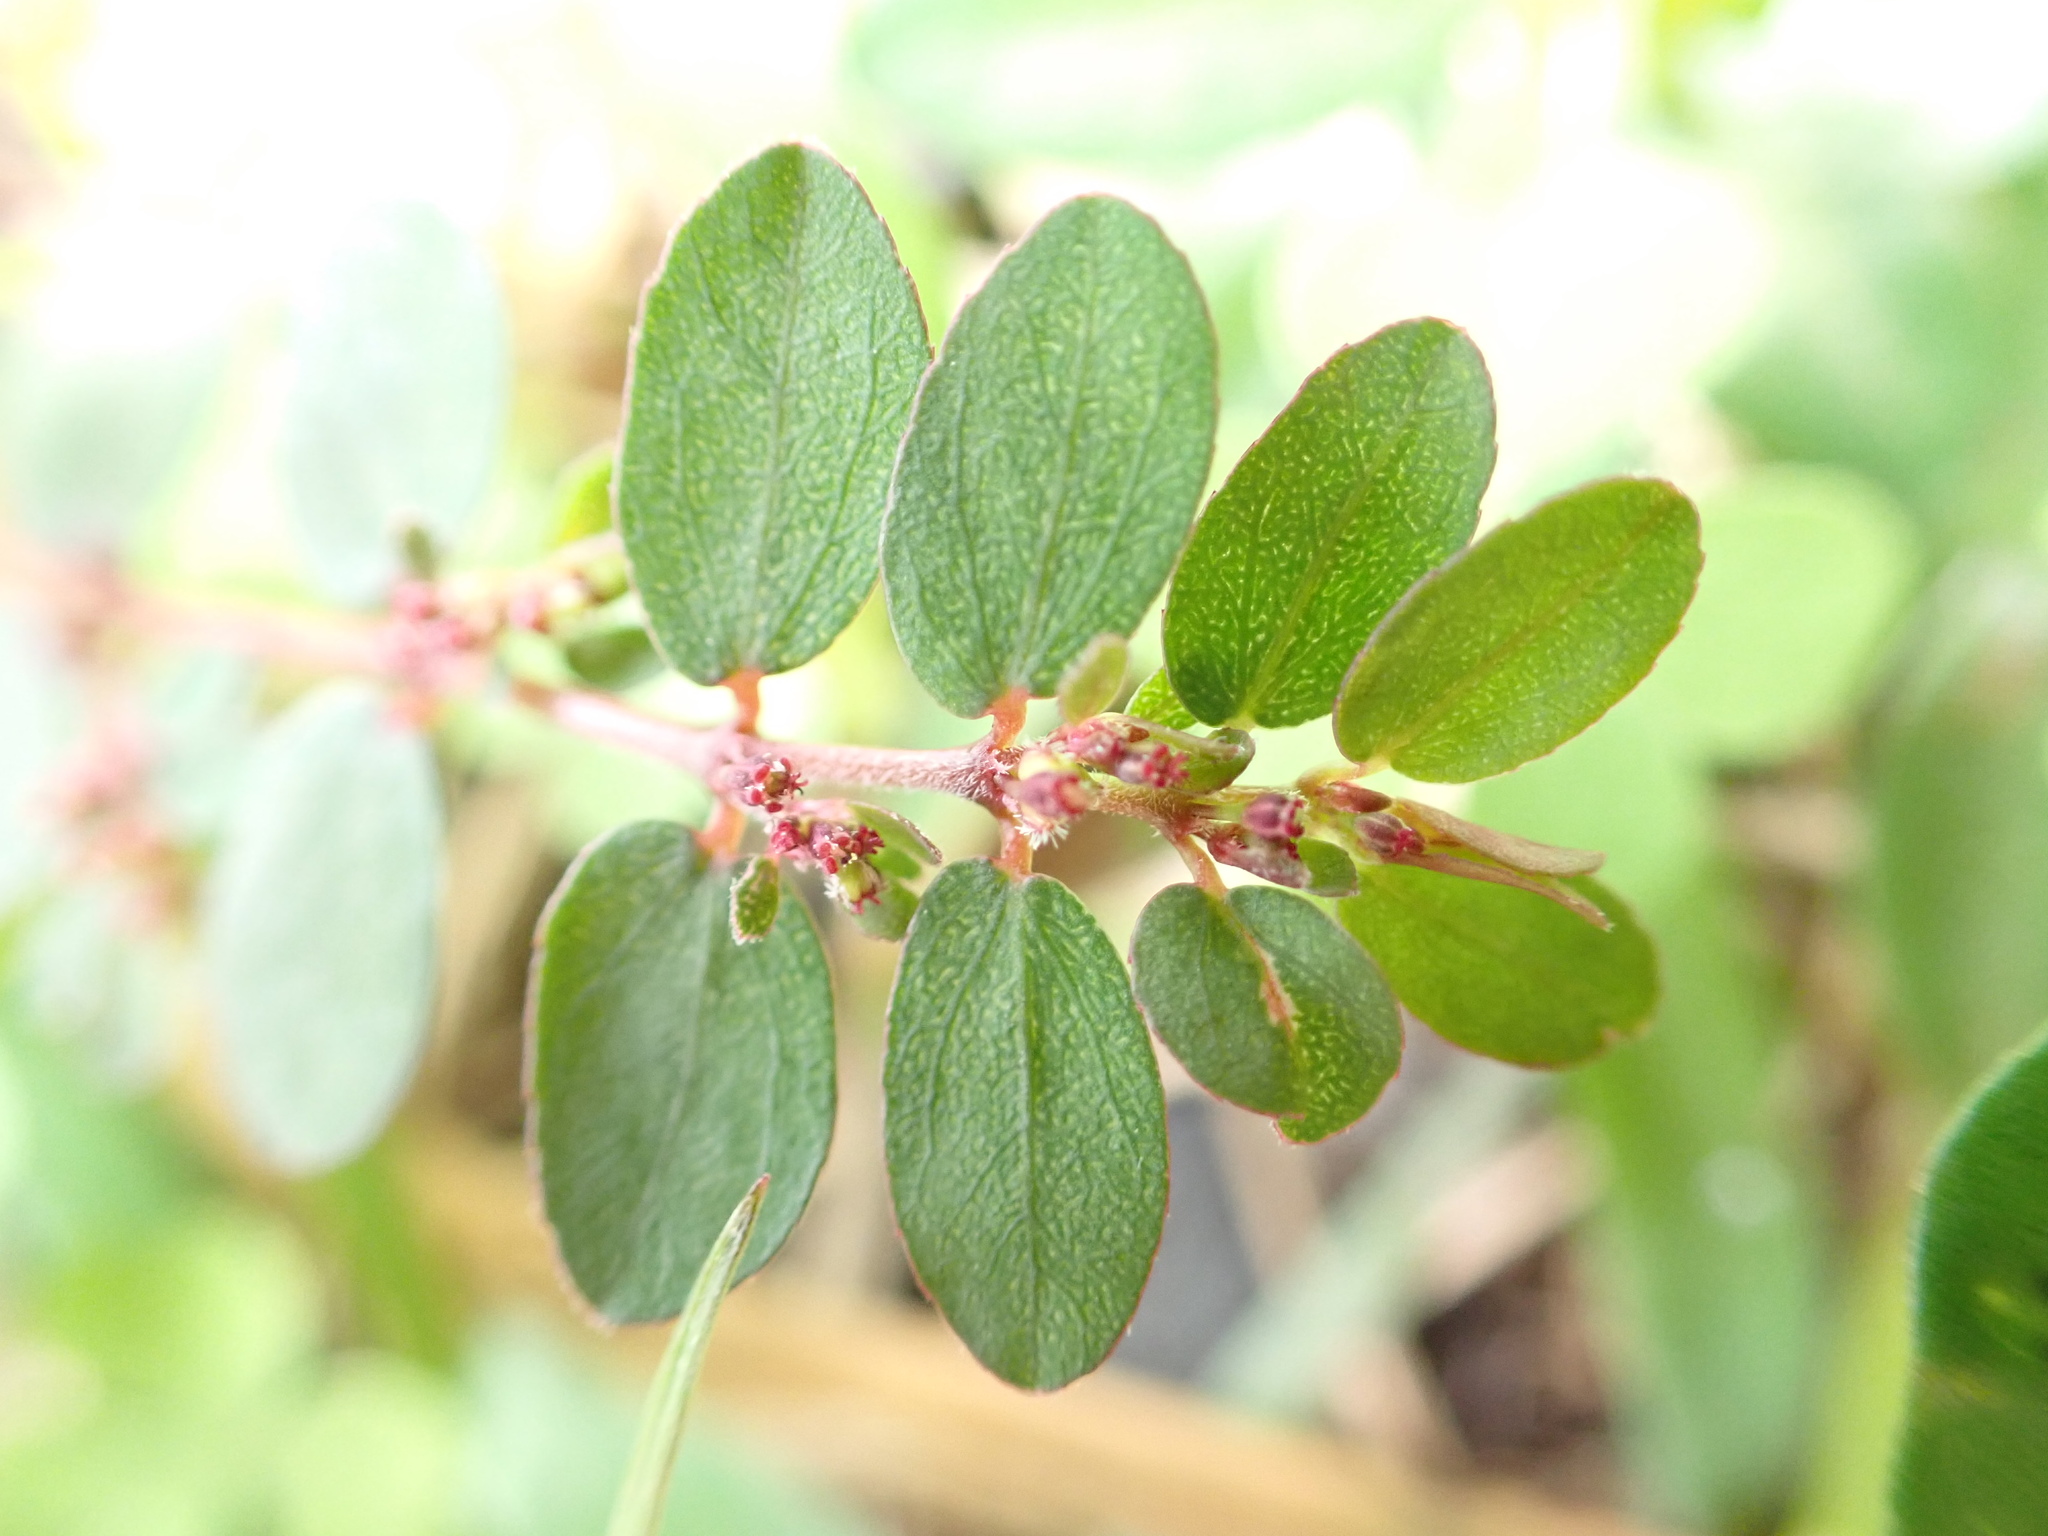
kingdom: Plantae
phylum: Tracheophyta
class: Magnoliopsida
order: Malpighiales
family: Euphorbiaceae
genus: Euphorbia
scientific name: Euphorbia prostrata
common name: Prostrate sandmat
